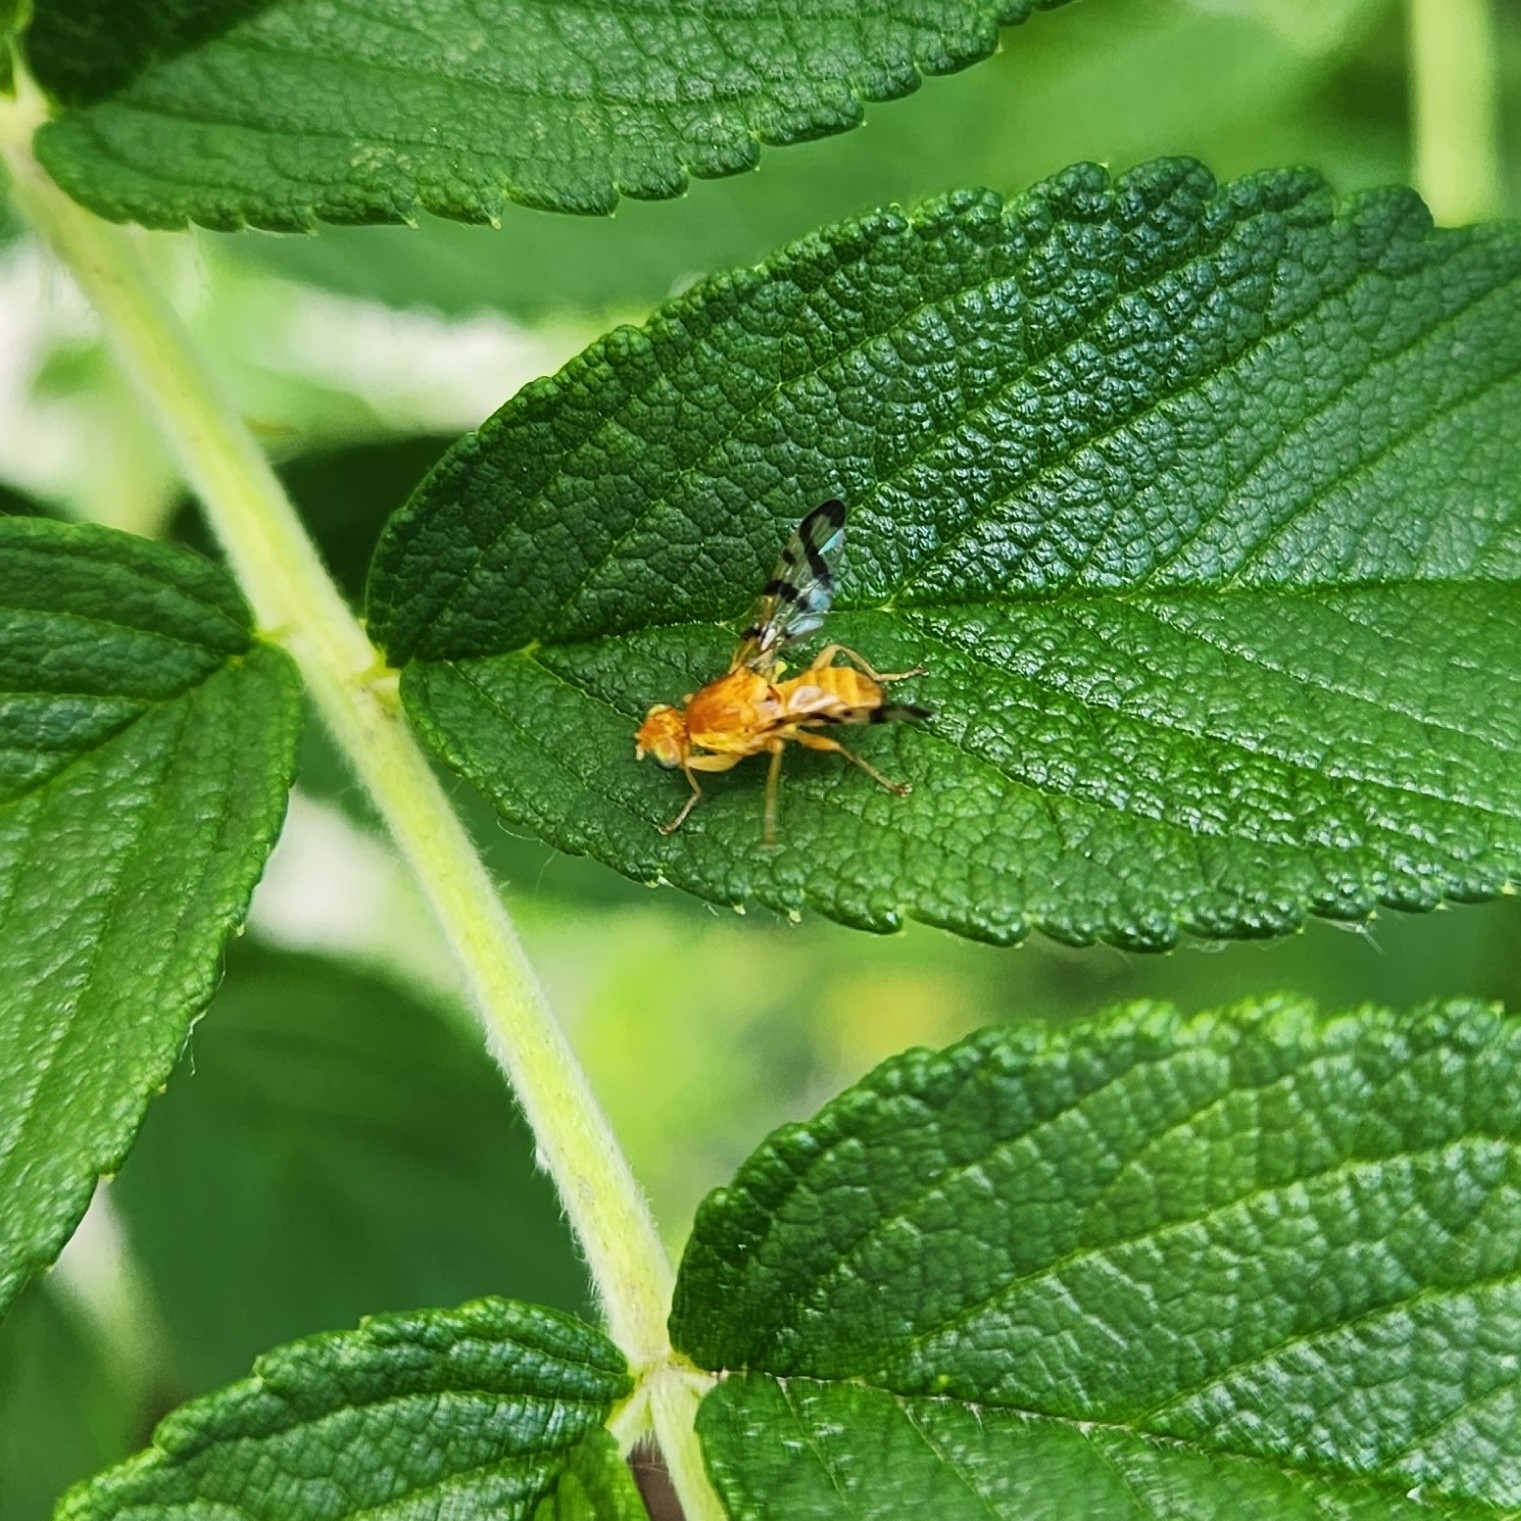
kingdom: Animalia
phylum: Arthropoda
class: Insecta
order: Diptera
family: Tephritidae
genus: Rhagoletis
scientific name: Rhagoletis basiola
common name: Rose hip fly
